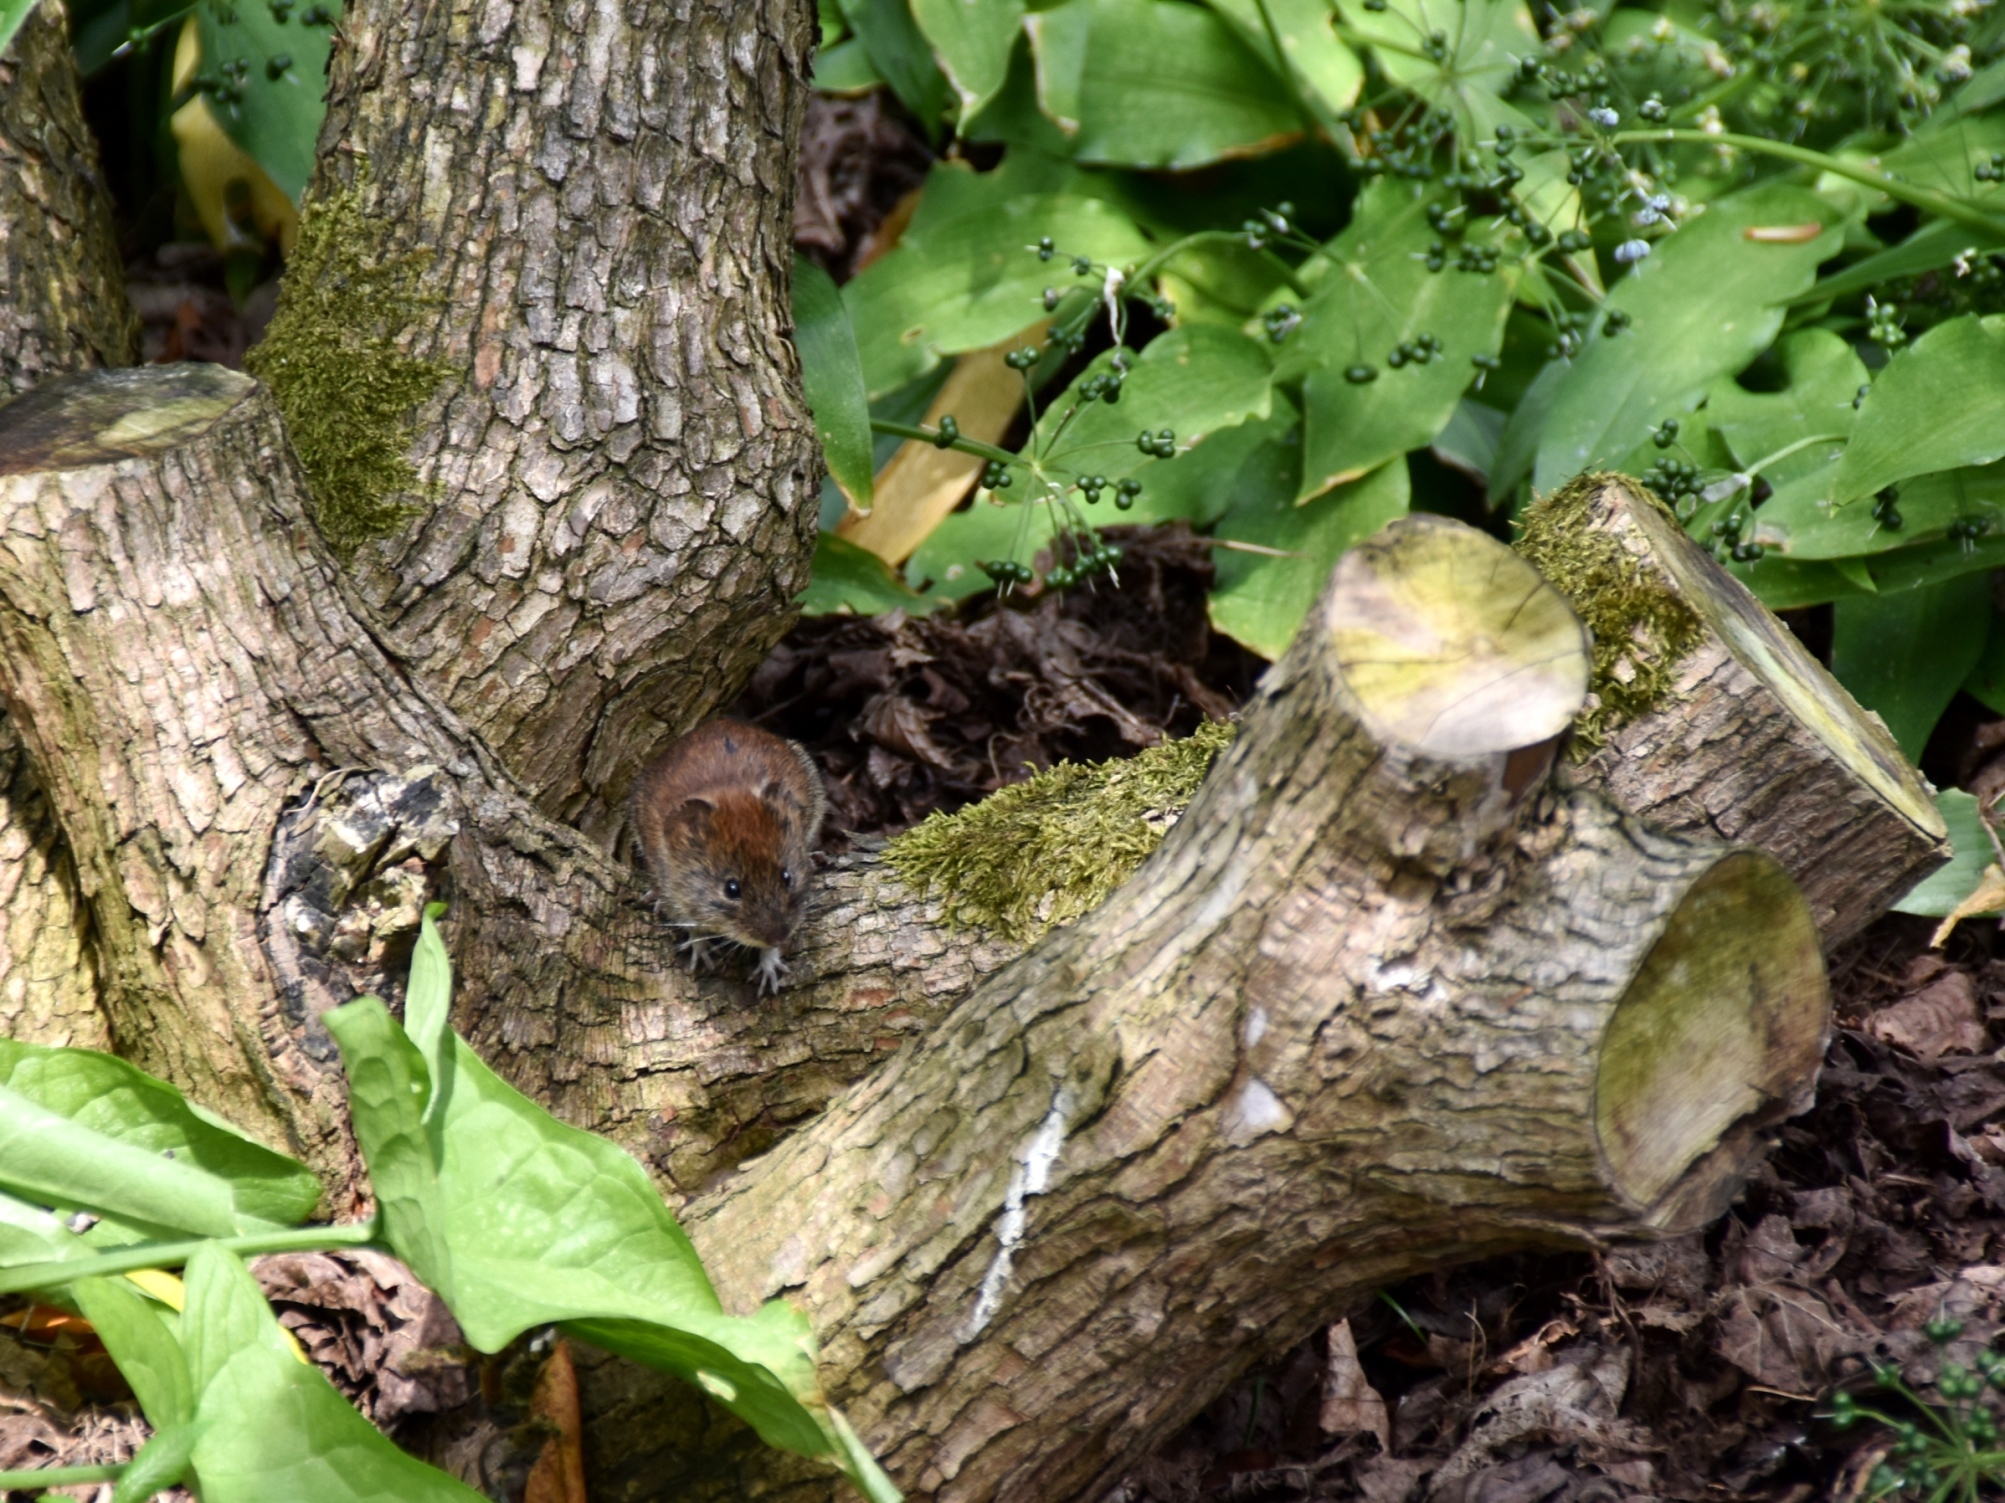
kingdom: Animalia
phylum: Chordata
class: Mammalia
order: Rodentia
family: Cricetidae
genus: Myodes
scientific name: Myodes glareolus
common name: Bank vole
